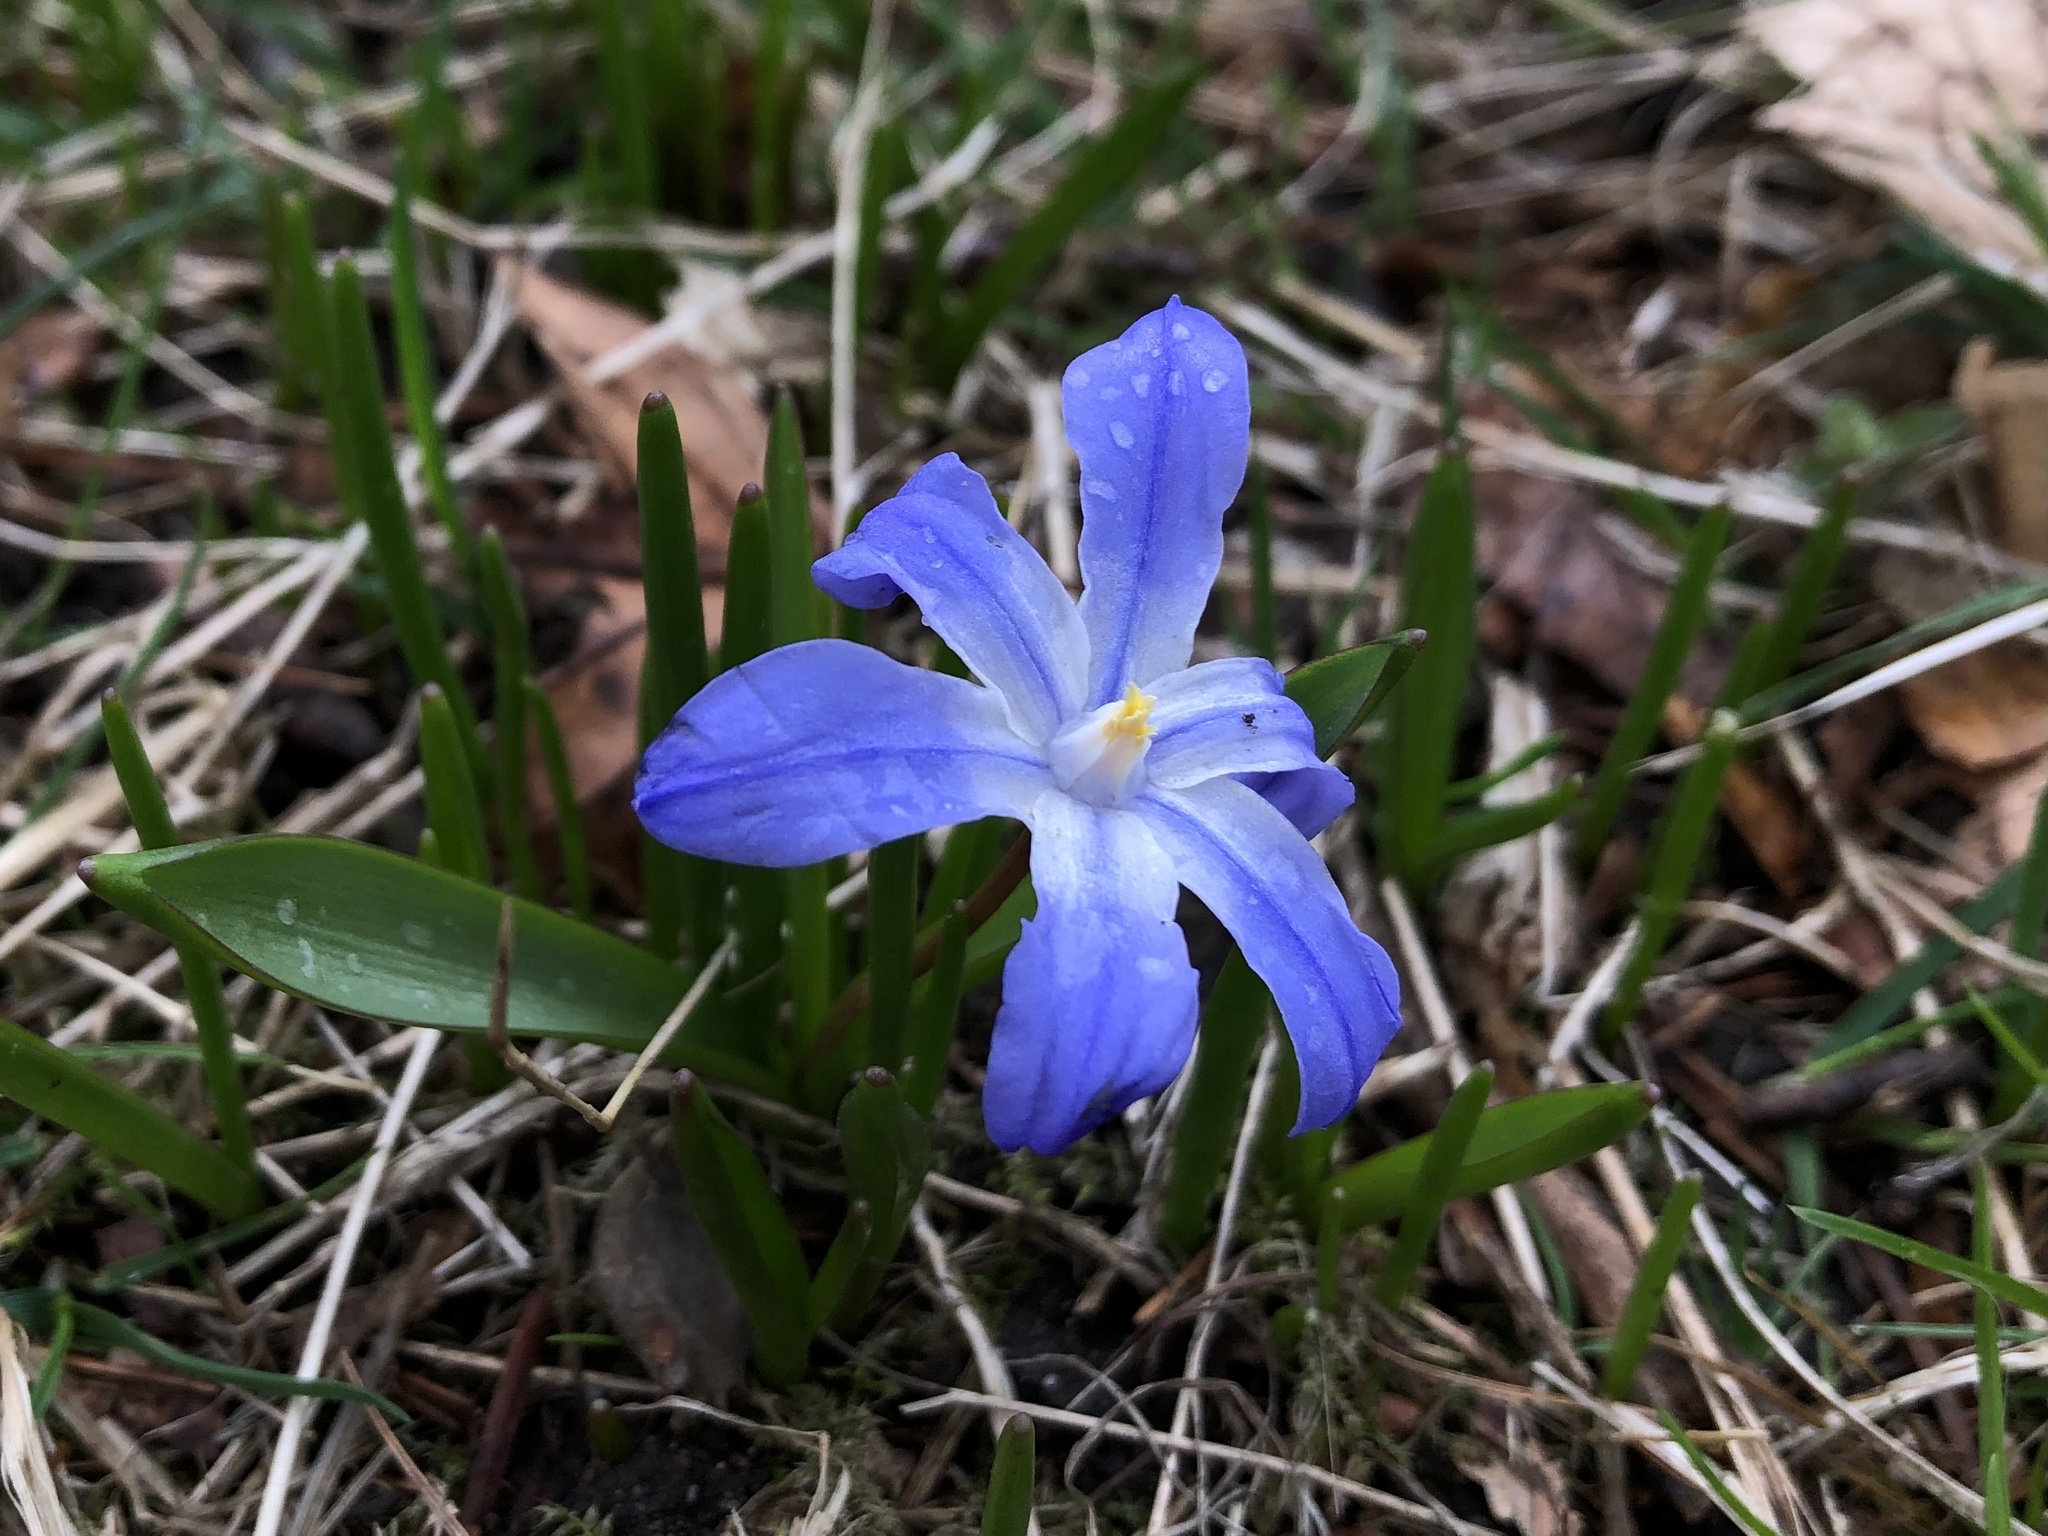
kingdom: Plantae
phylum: Tracheophyta
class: Liliopsida
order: Asparagales
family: Asparagaceae
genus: Scilla
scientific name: Scilla luciliae
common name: Boissier's glory-of-the-snow
